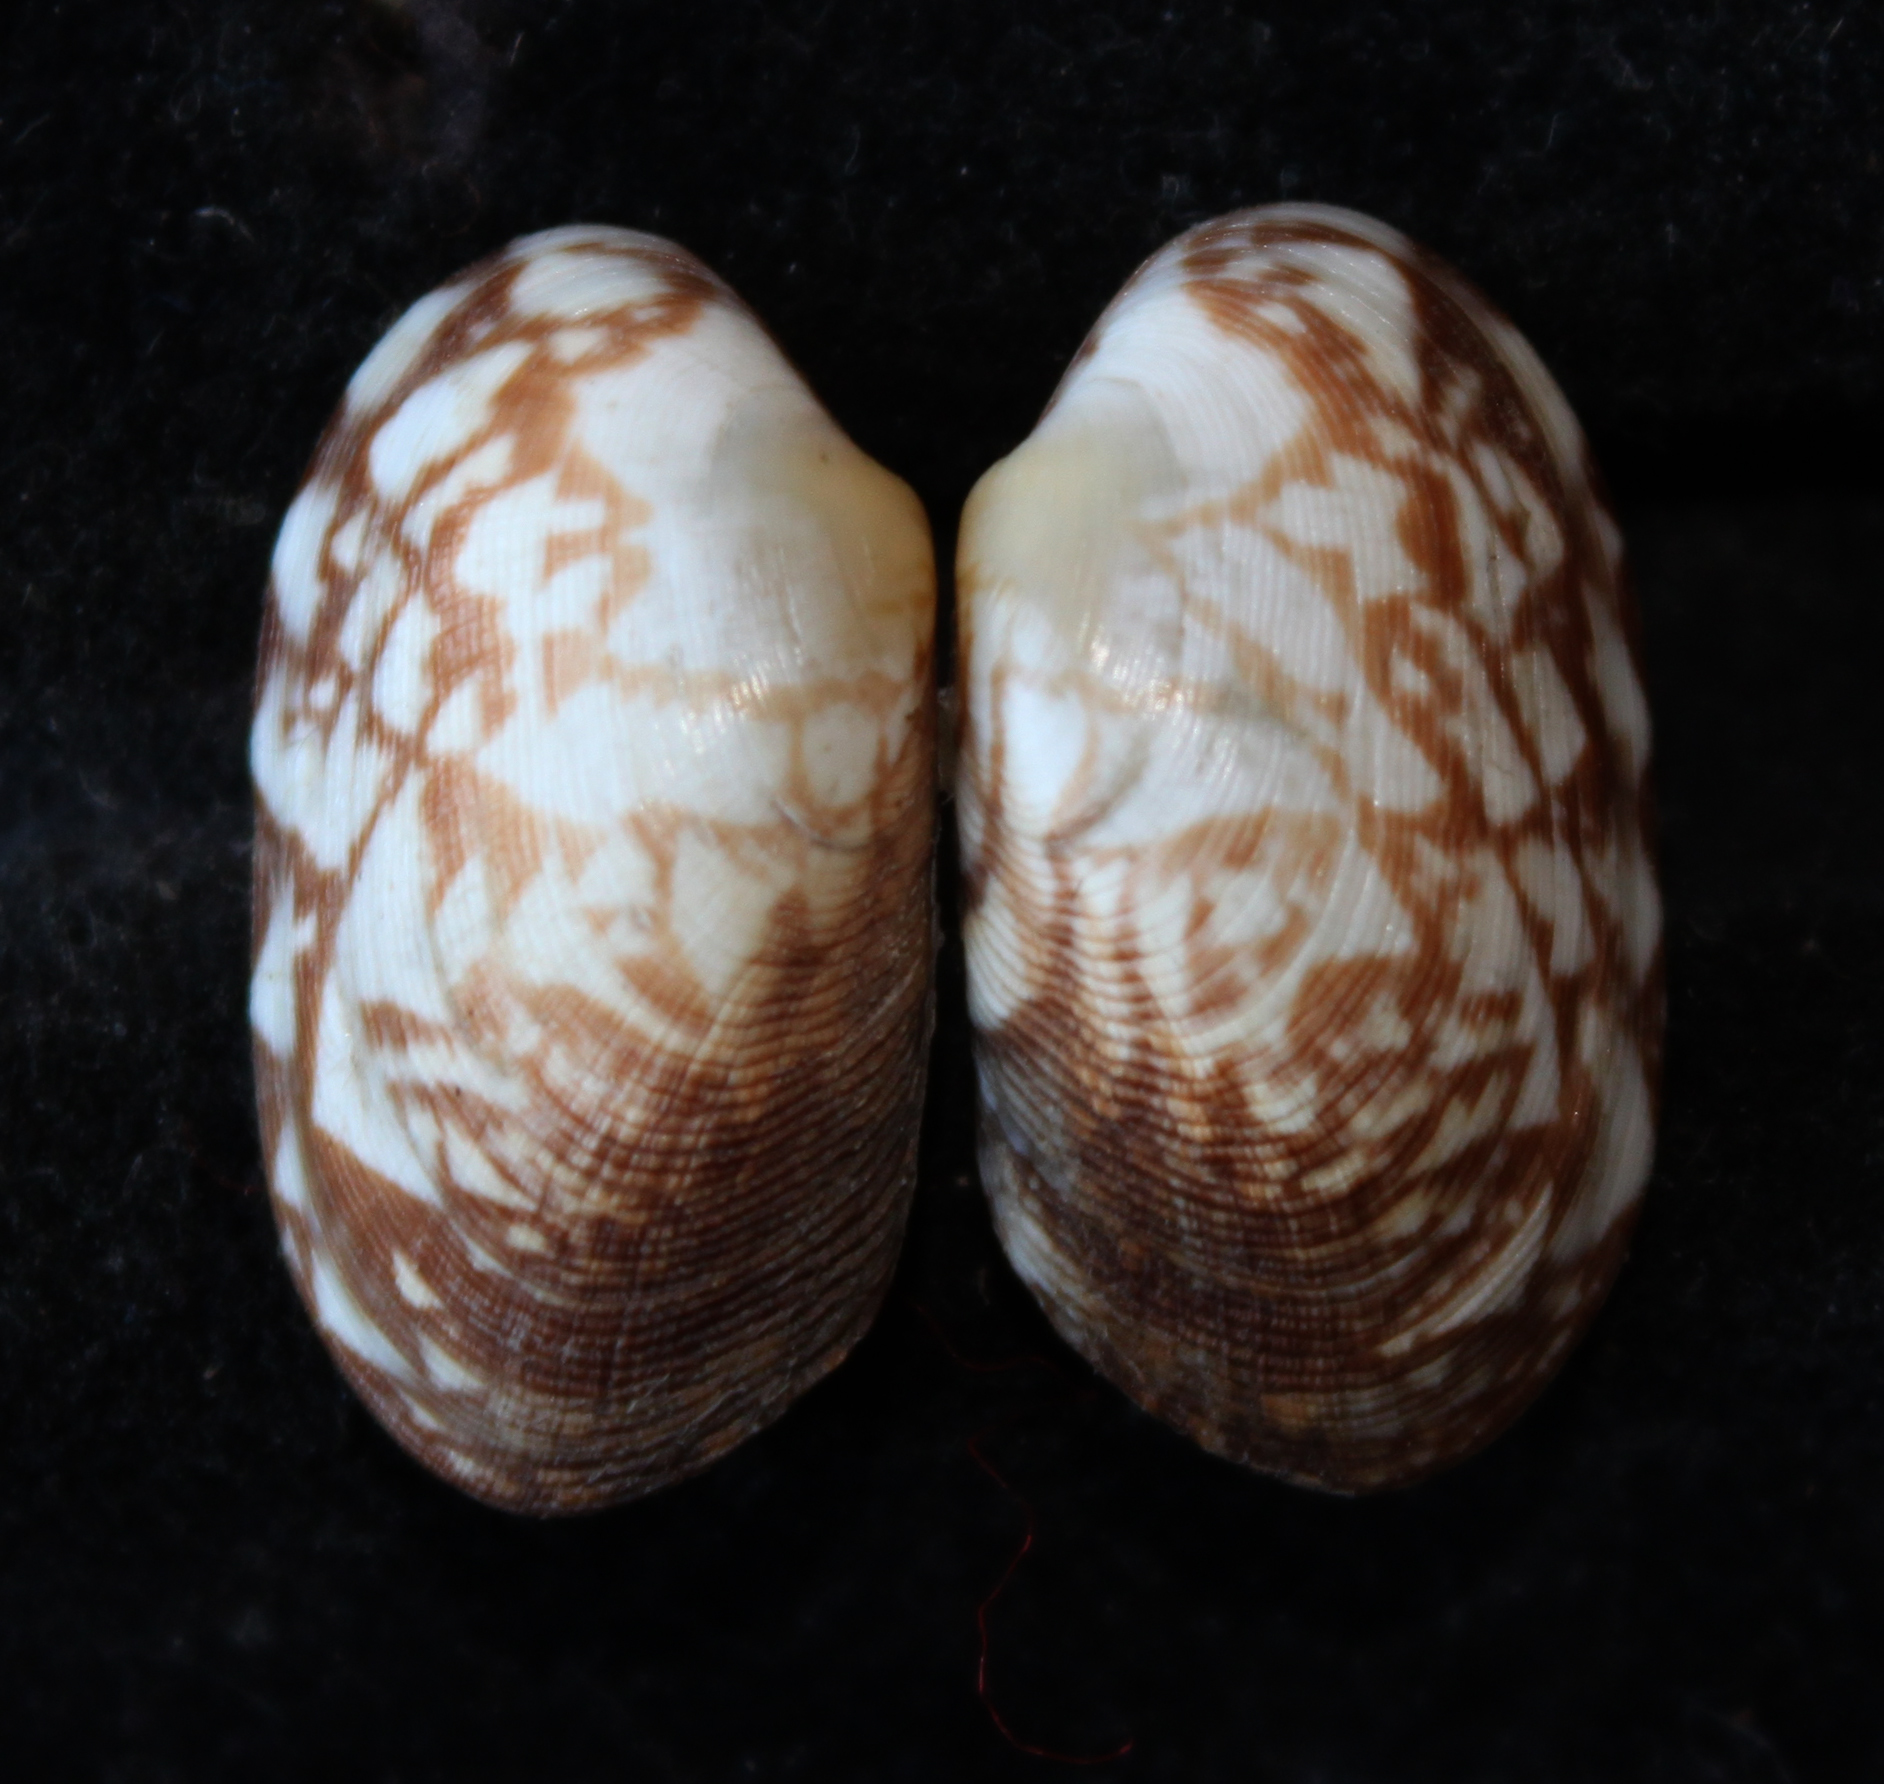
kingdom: Animalia
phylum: Mollusca
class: Bivalvia
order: Venerida
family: Veneridae
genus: Venerupis
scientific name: Venerupis geographica
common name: Banded carpet shell
